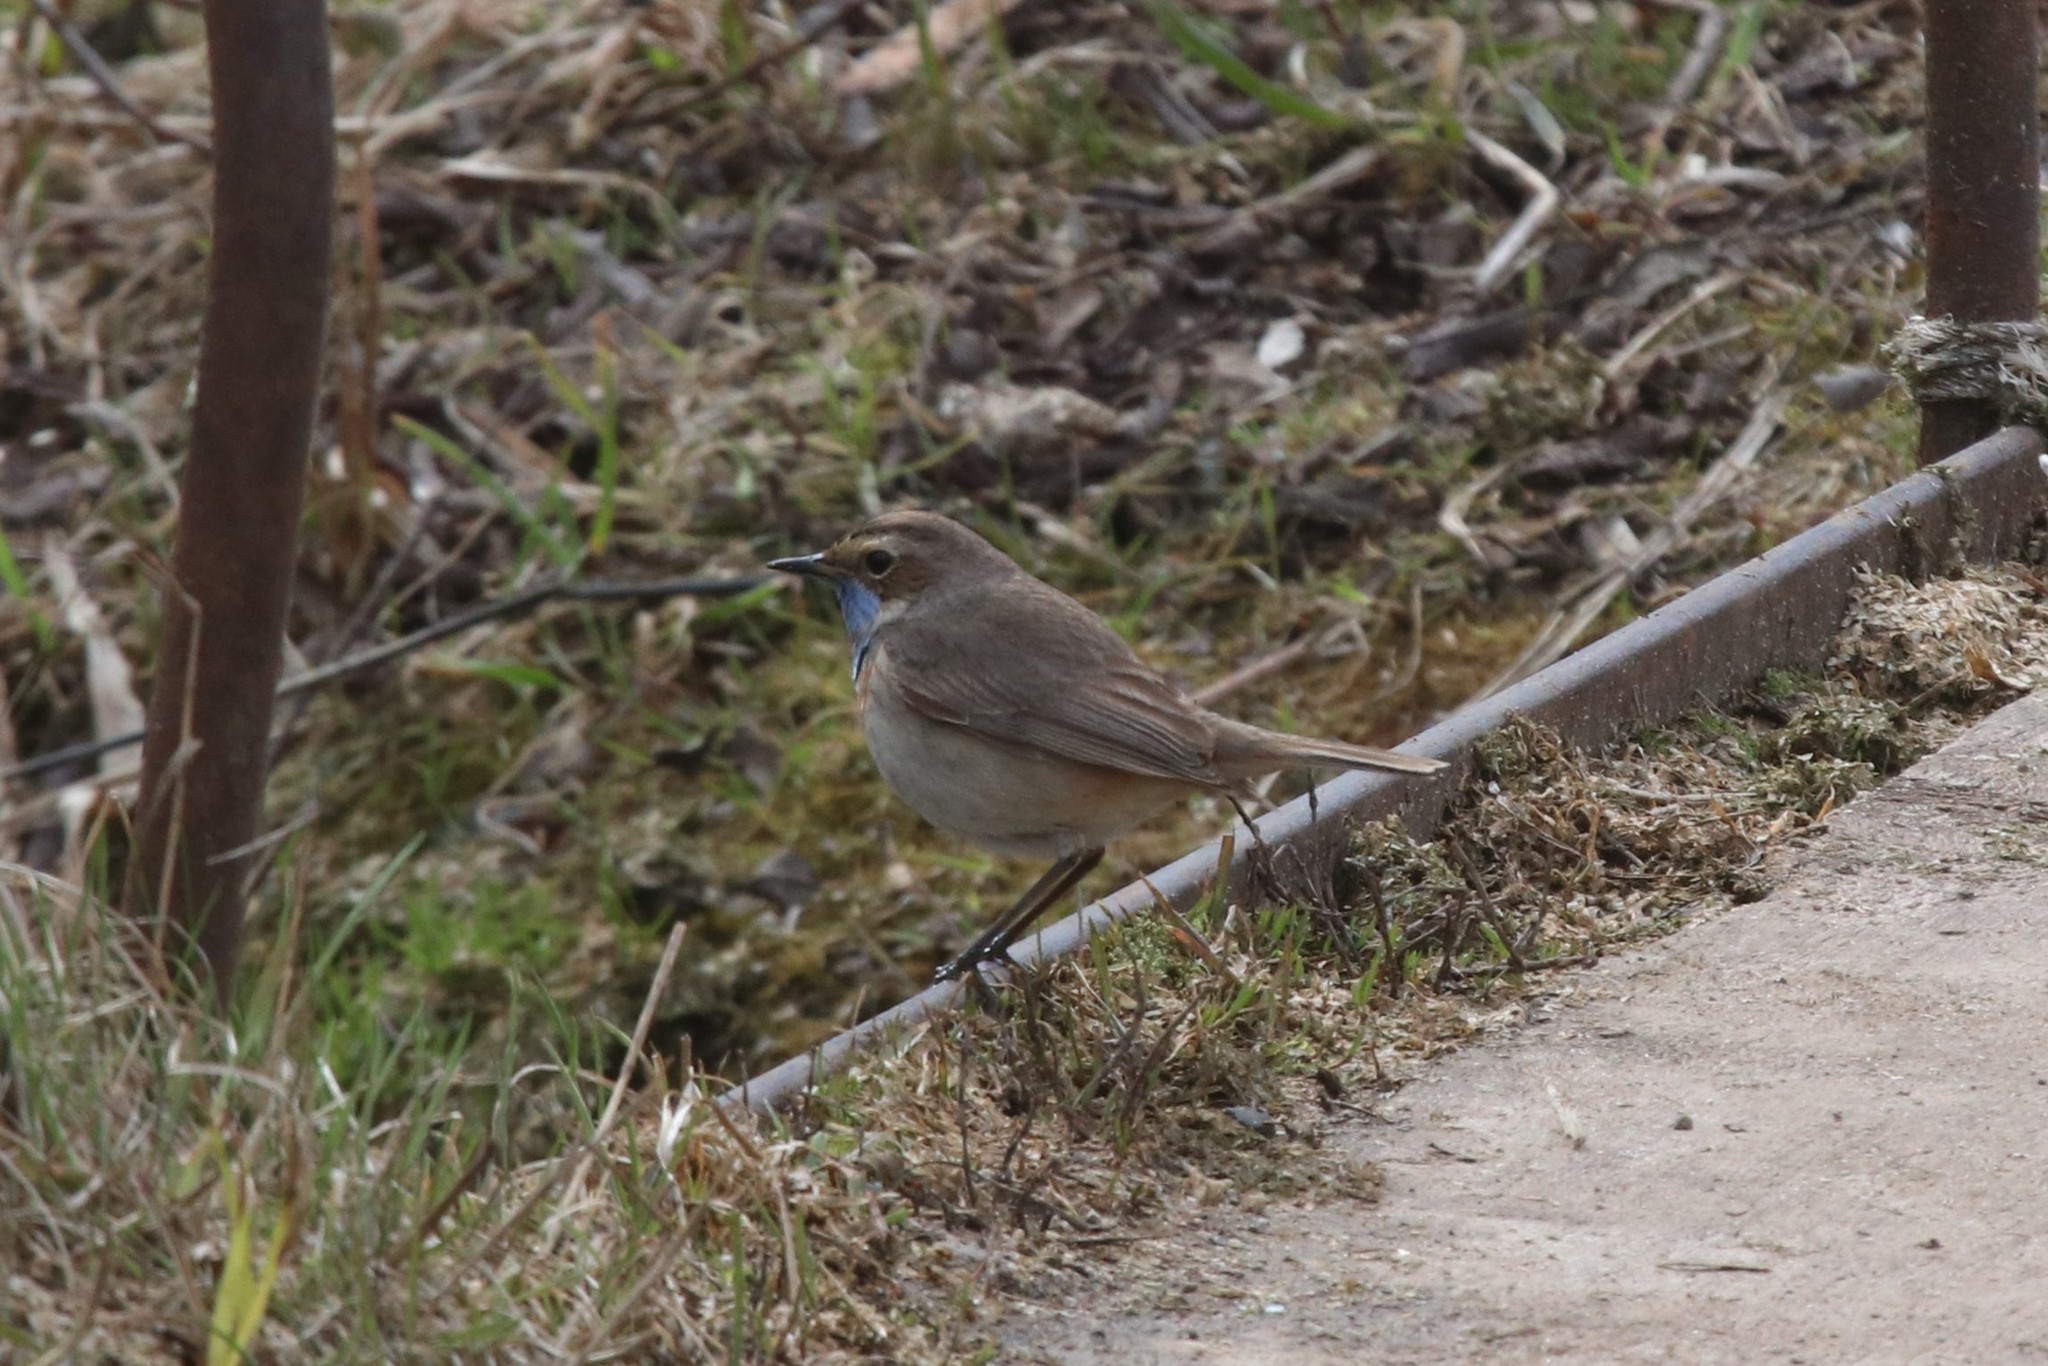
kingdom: Animalia
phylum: Chordata
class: Aves
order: Passeriformes
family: Muscicapidae
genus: Luscinia
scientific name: Luscinia svecica
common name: Bluethroat
